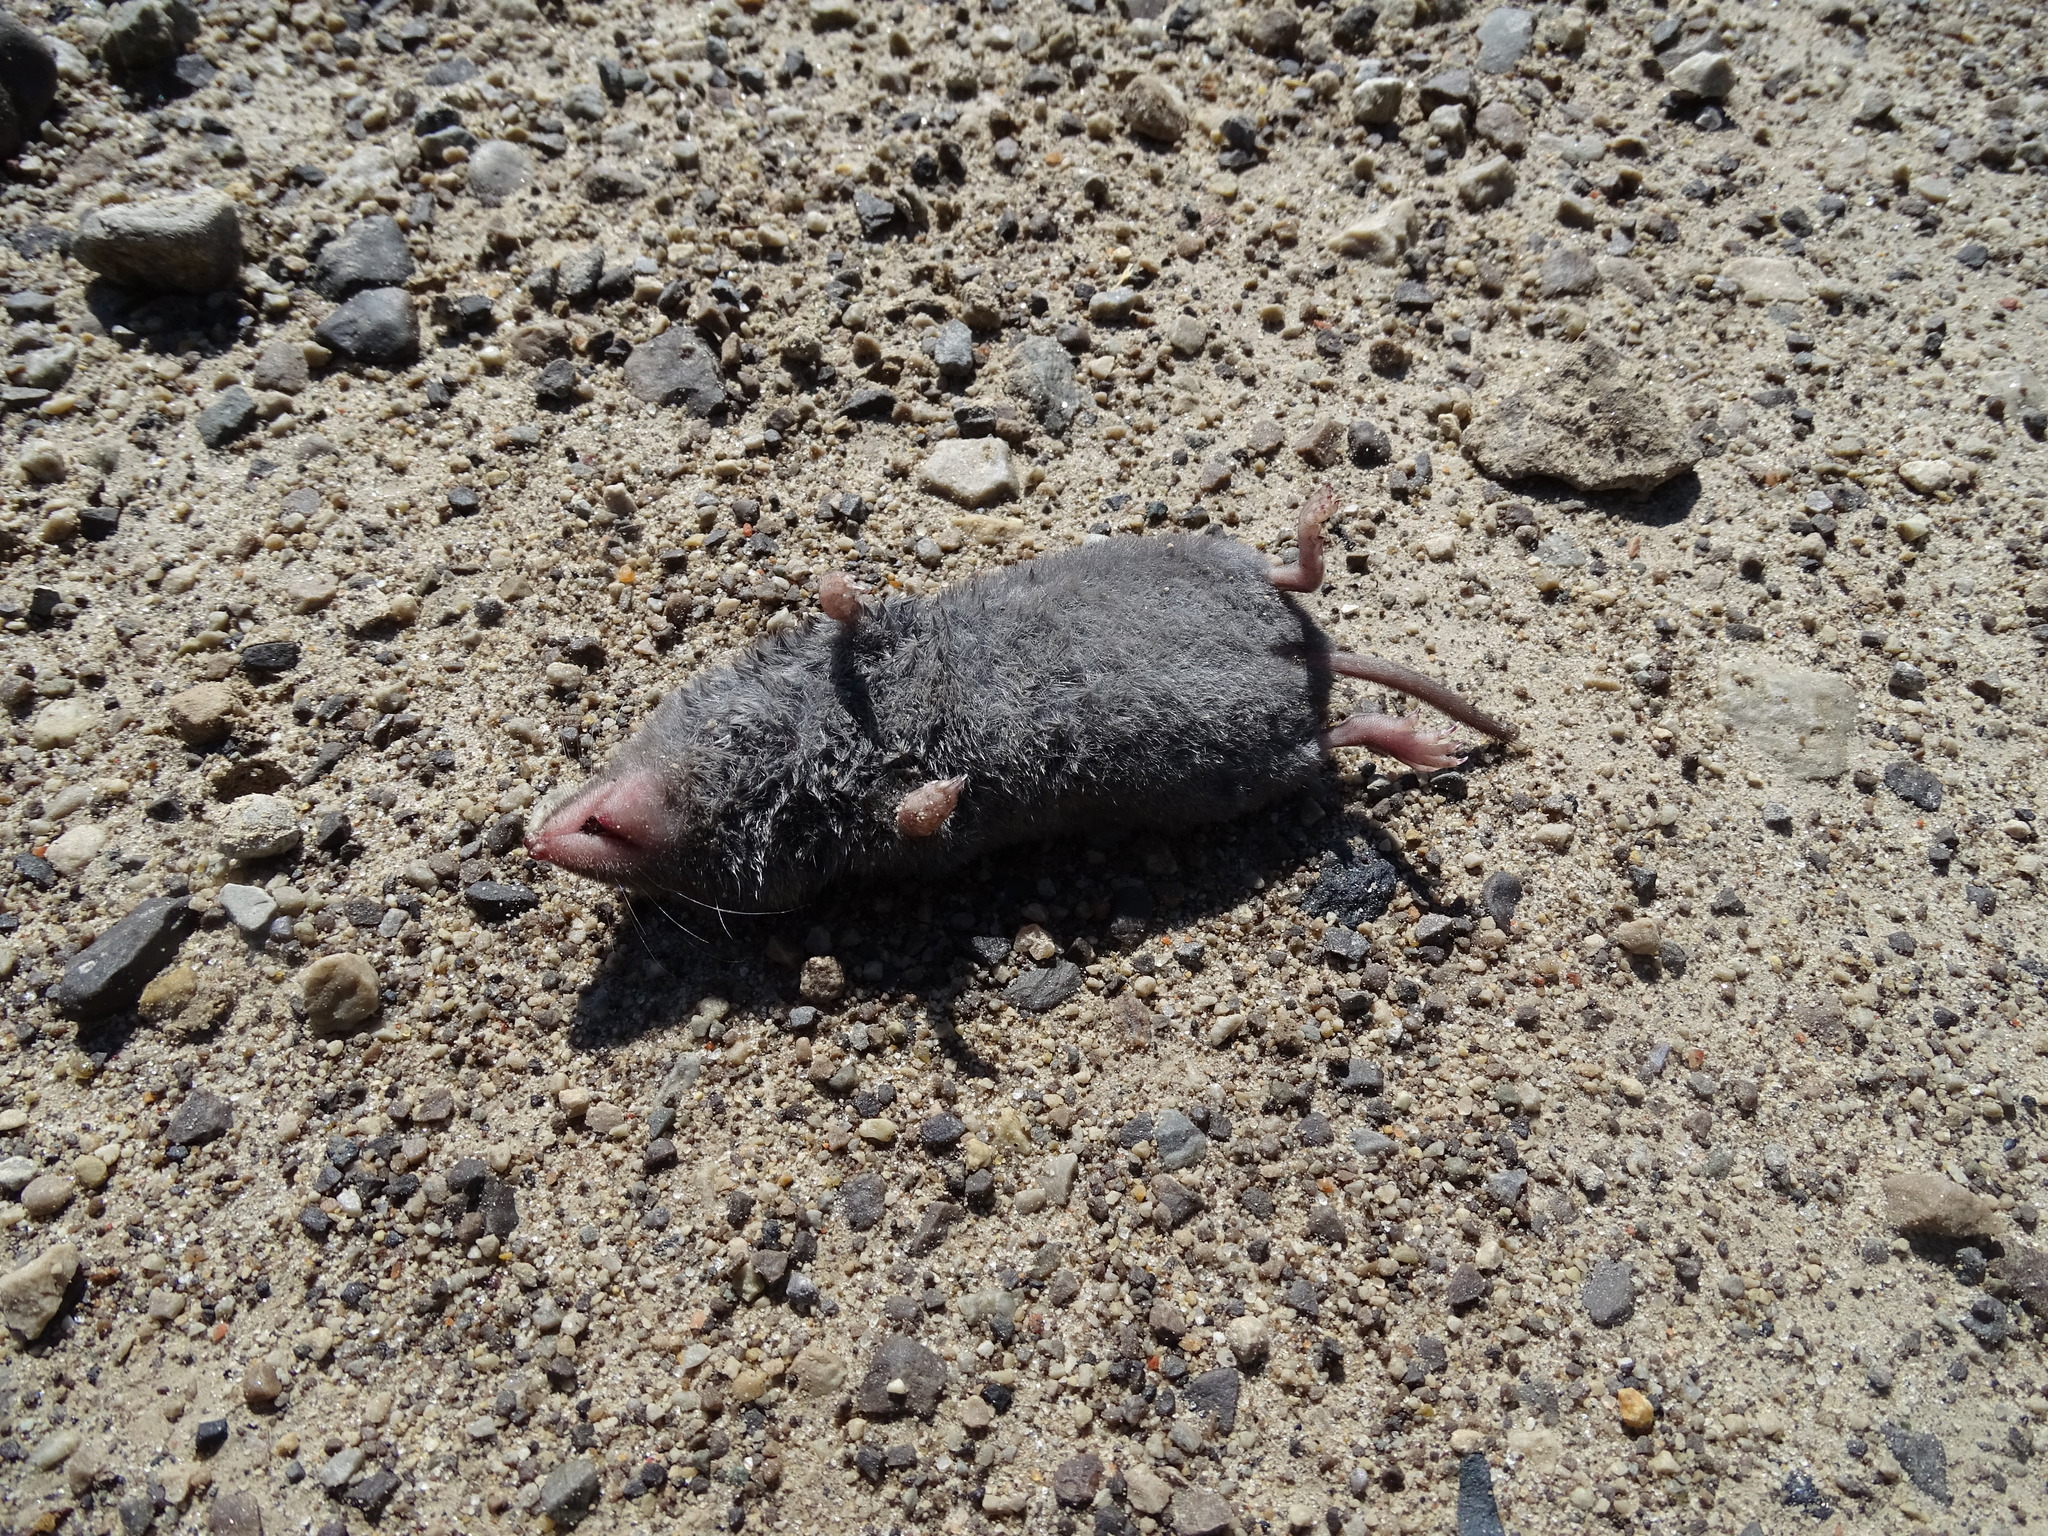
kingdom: Animalia
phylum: Chordata
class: Mammalia
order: Soricomorpha
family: Soricidae
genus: Blarina
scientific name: Blarina brevicauda
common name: Northern short-tailed shrew
